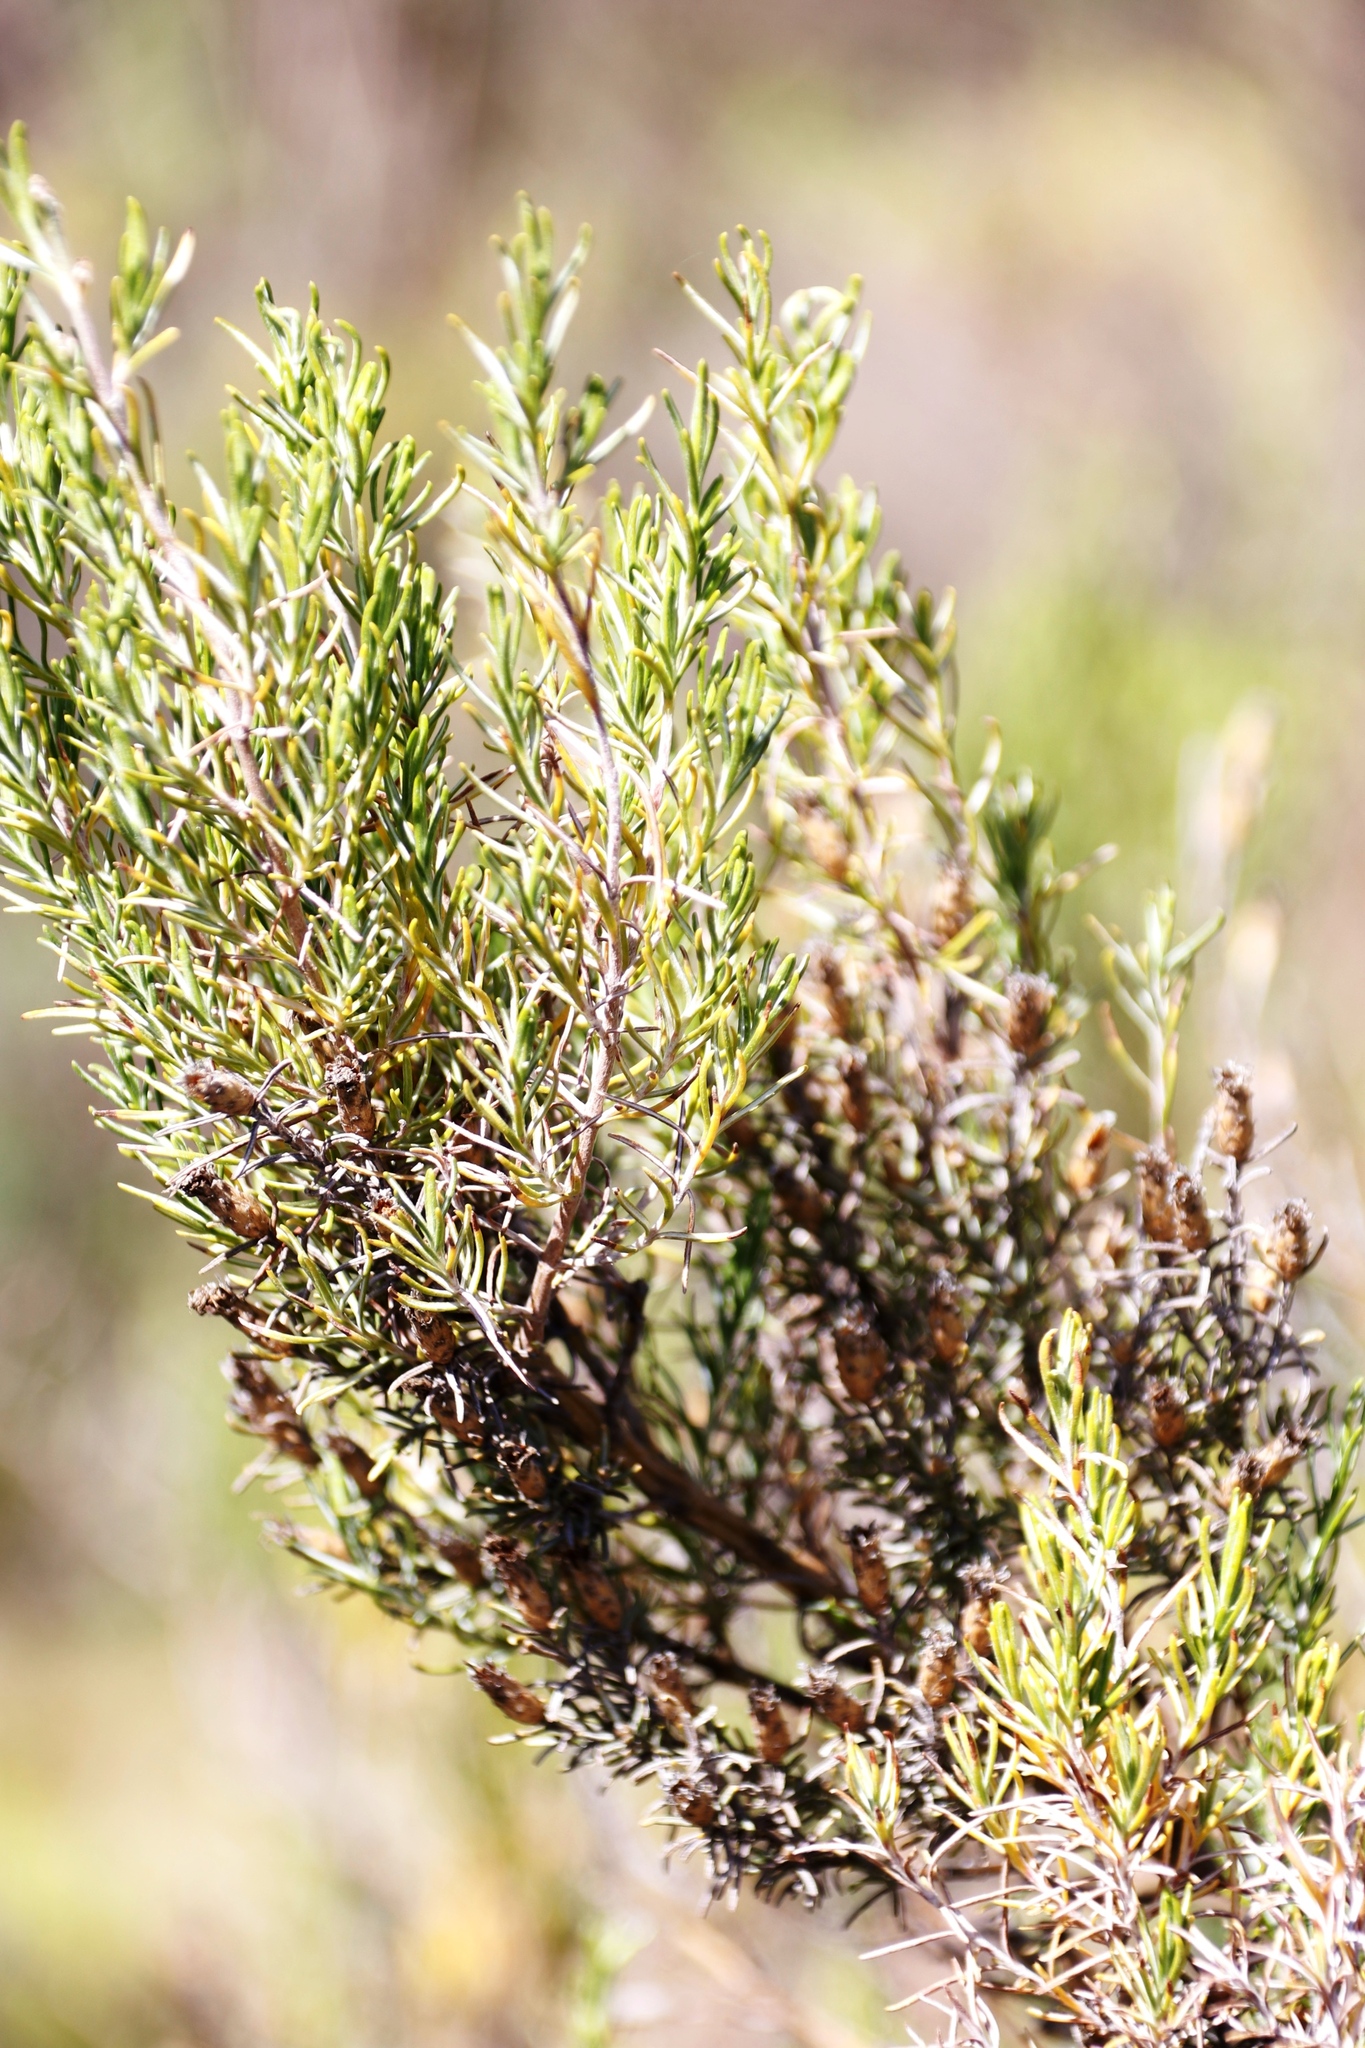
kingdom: Plantae
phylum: Tracheophyta
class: Magnoliopsida
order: Asterales
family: Asteraceae
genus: Dicerothamnus
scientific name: Dicerothamnus rhinocerotis
